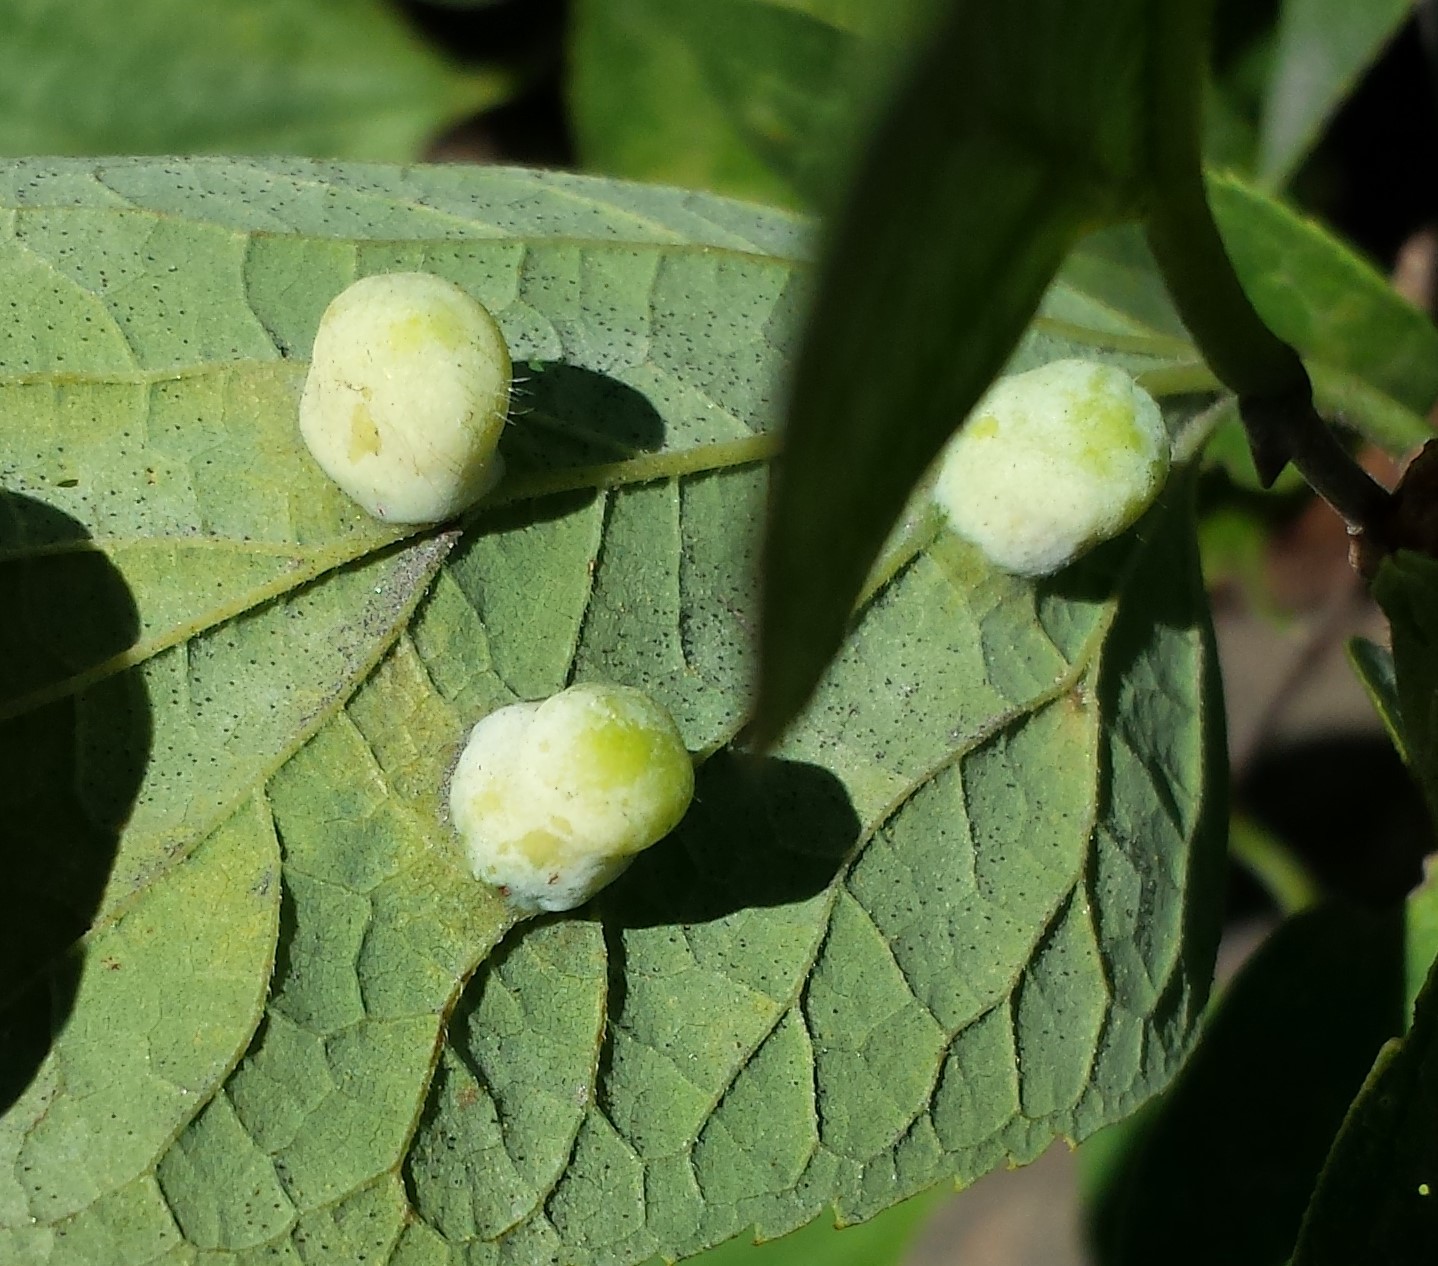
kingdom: Animalia
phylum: Arthropoda
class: Insecta
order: Hemiptera
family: Aphalaridae
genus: Pachypsylla
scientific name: Pachypsylla celtidismamma
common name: Hackberry nipplegall psyllid
